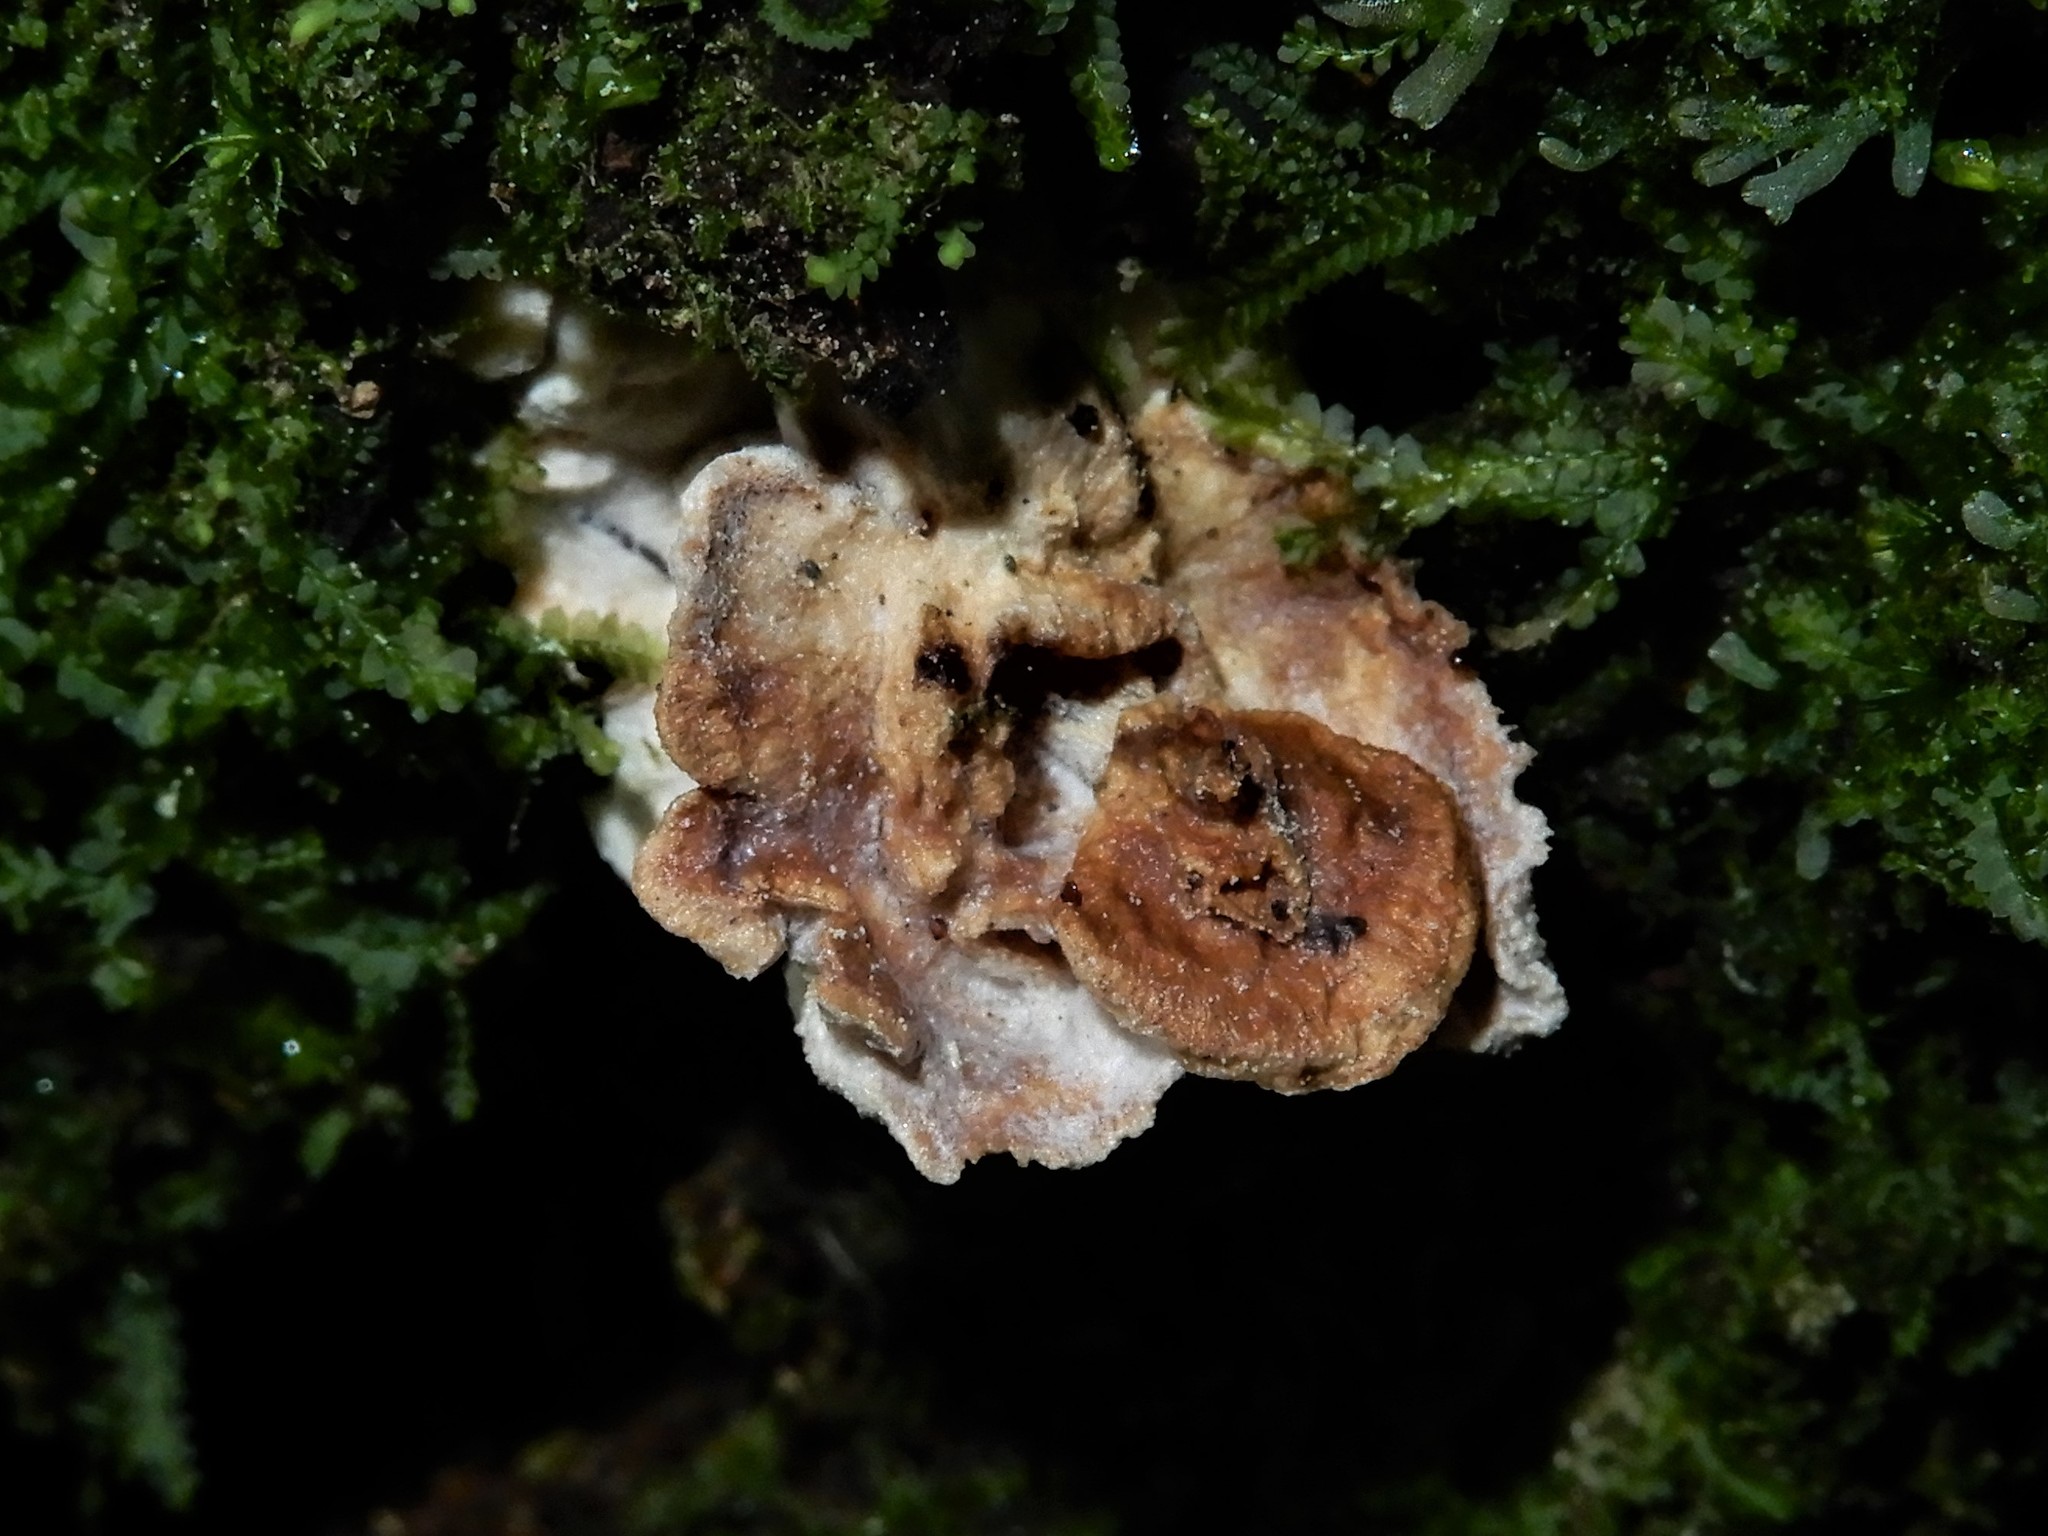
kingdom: Fungi
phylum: Basidiomycota
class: Agaricomycetes
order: Amylocorticiales
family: Amylocorticiaceae
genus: Podoserpula
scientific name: Podoserpula pusio
